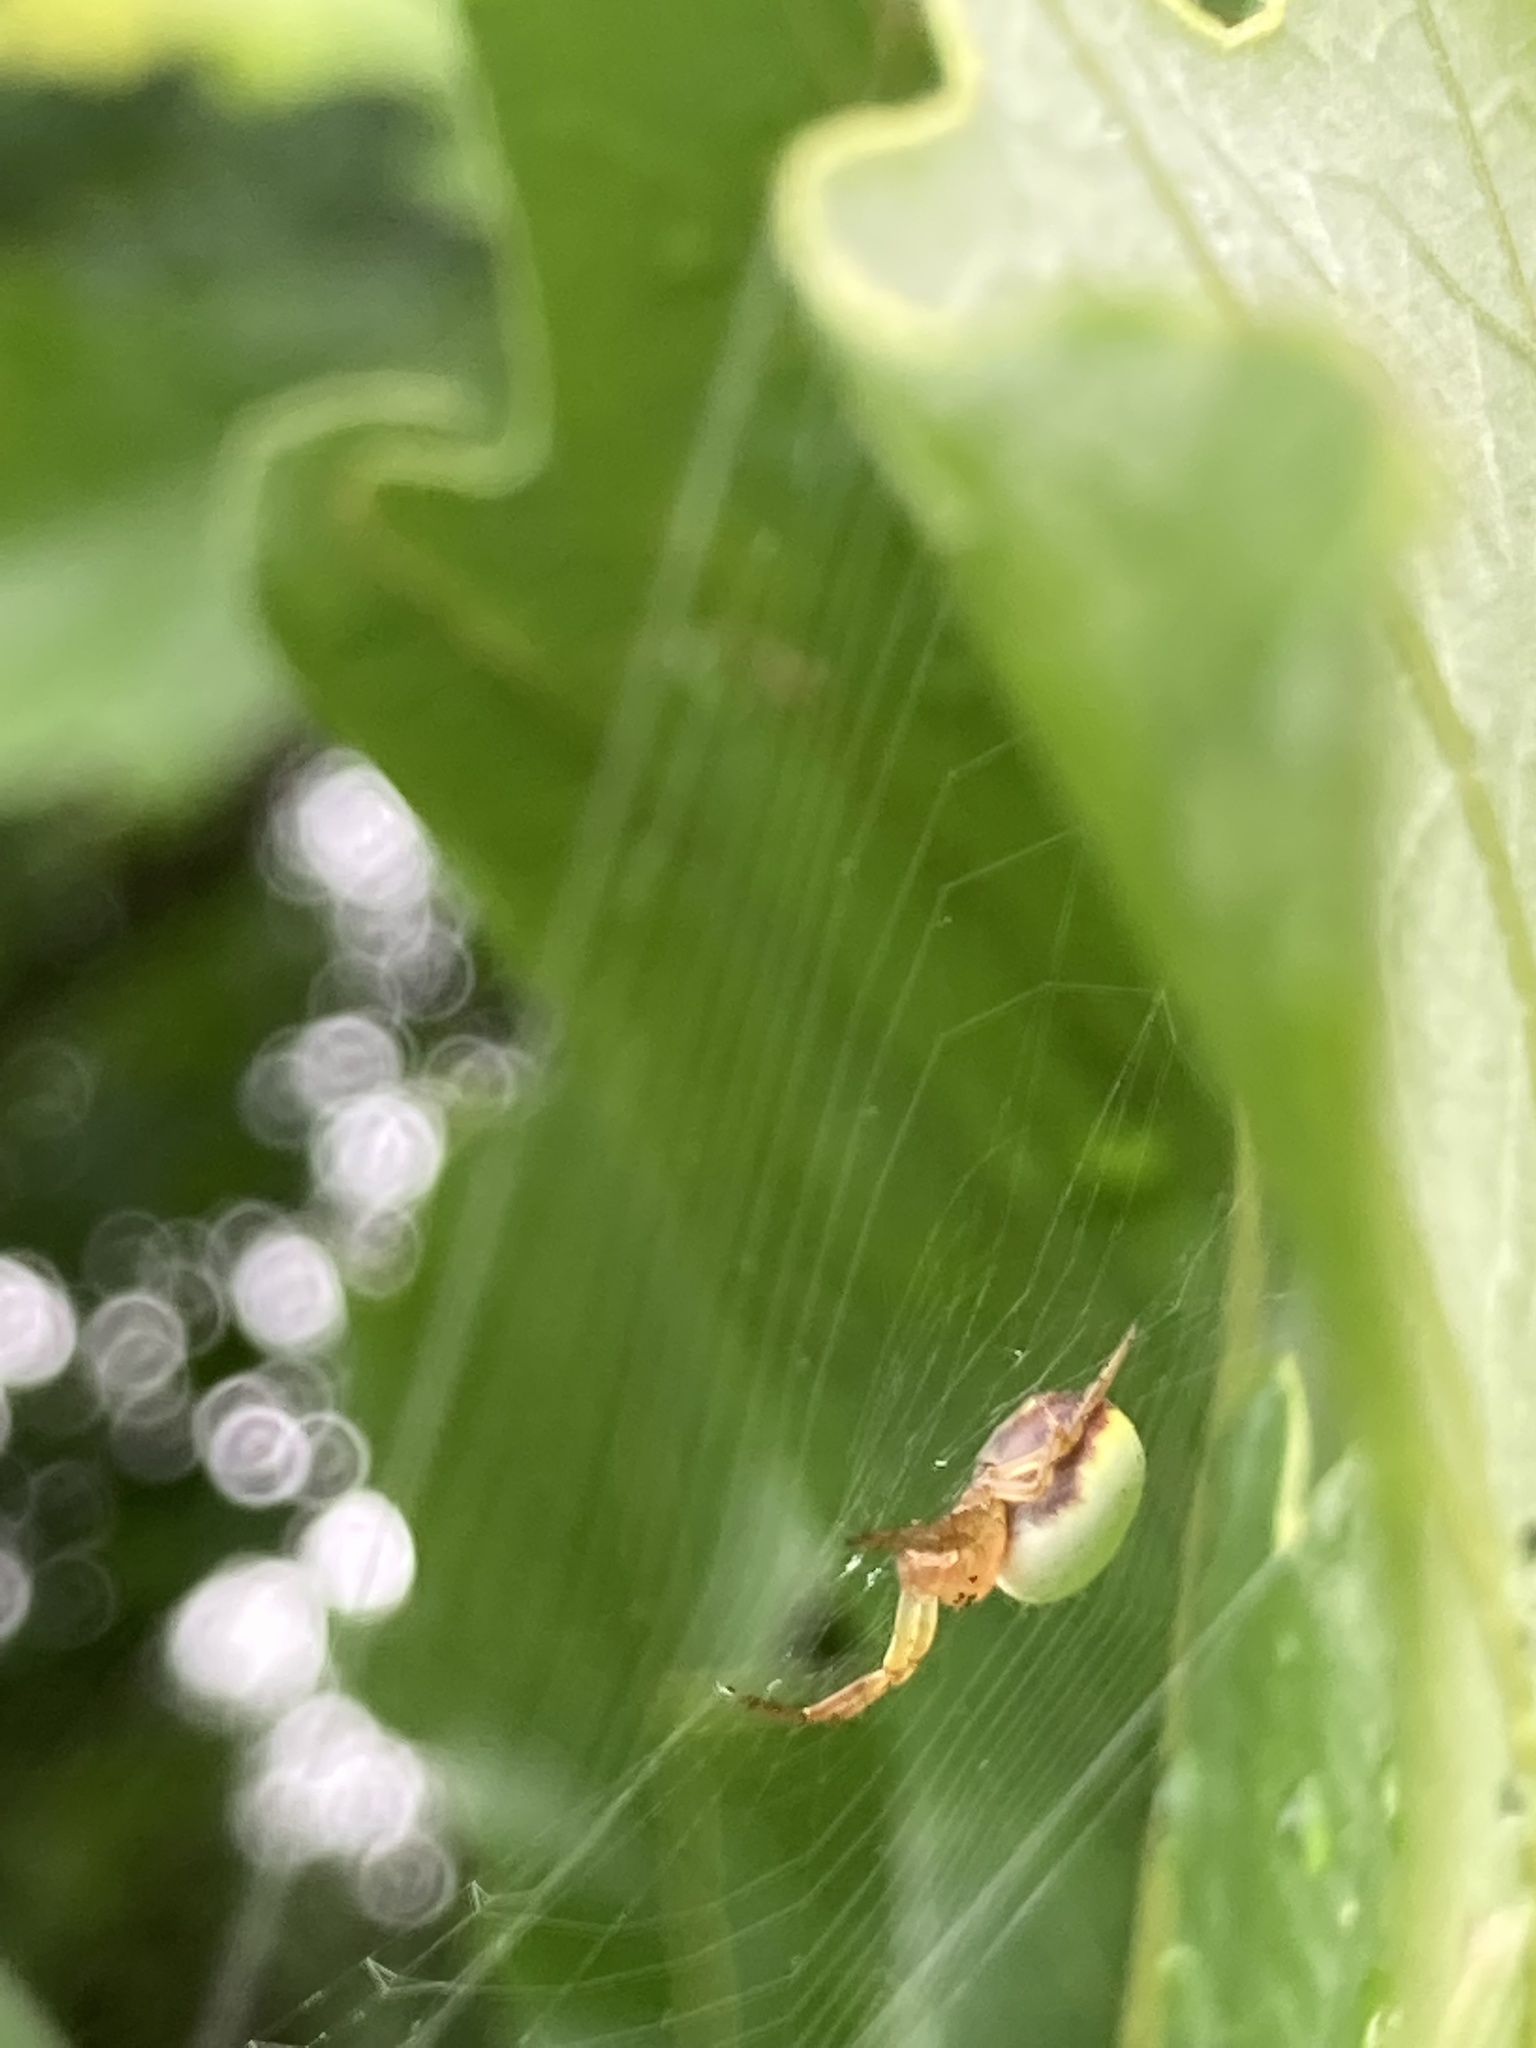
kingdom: Animalia
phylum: Arthropoda
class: Arachnida
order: Araneae
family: Araneidae
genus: Araniella
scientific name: Araniella displicata
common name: Sixspotted orb weaver
